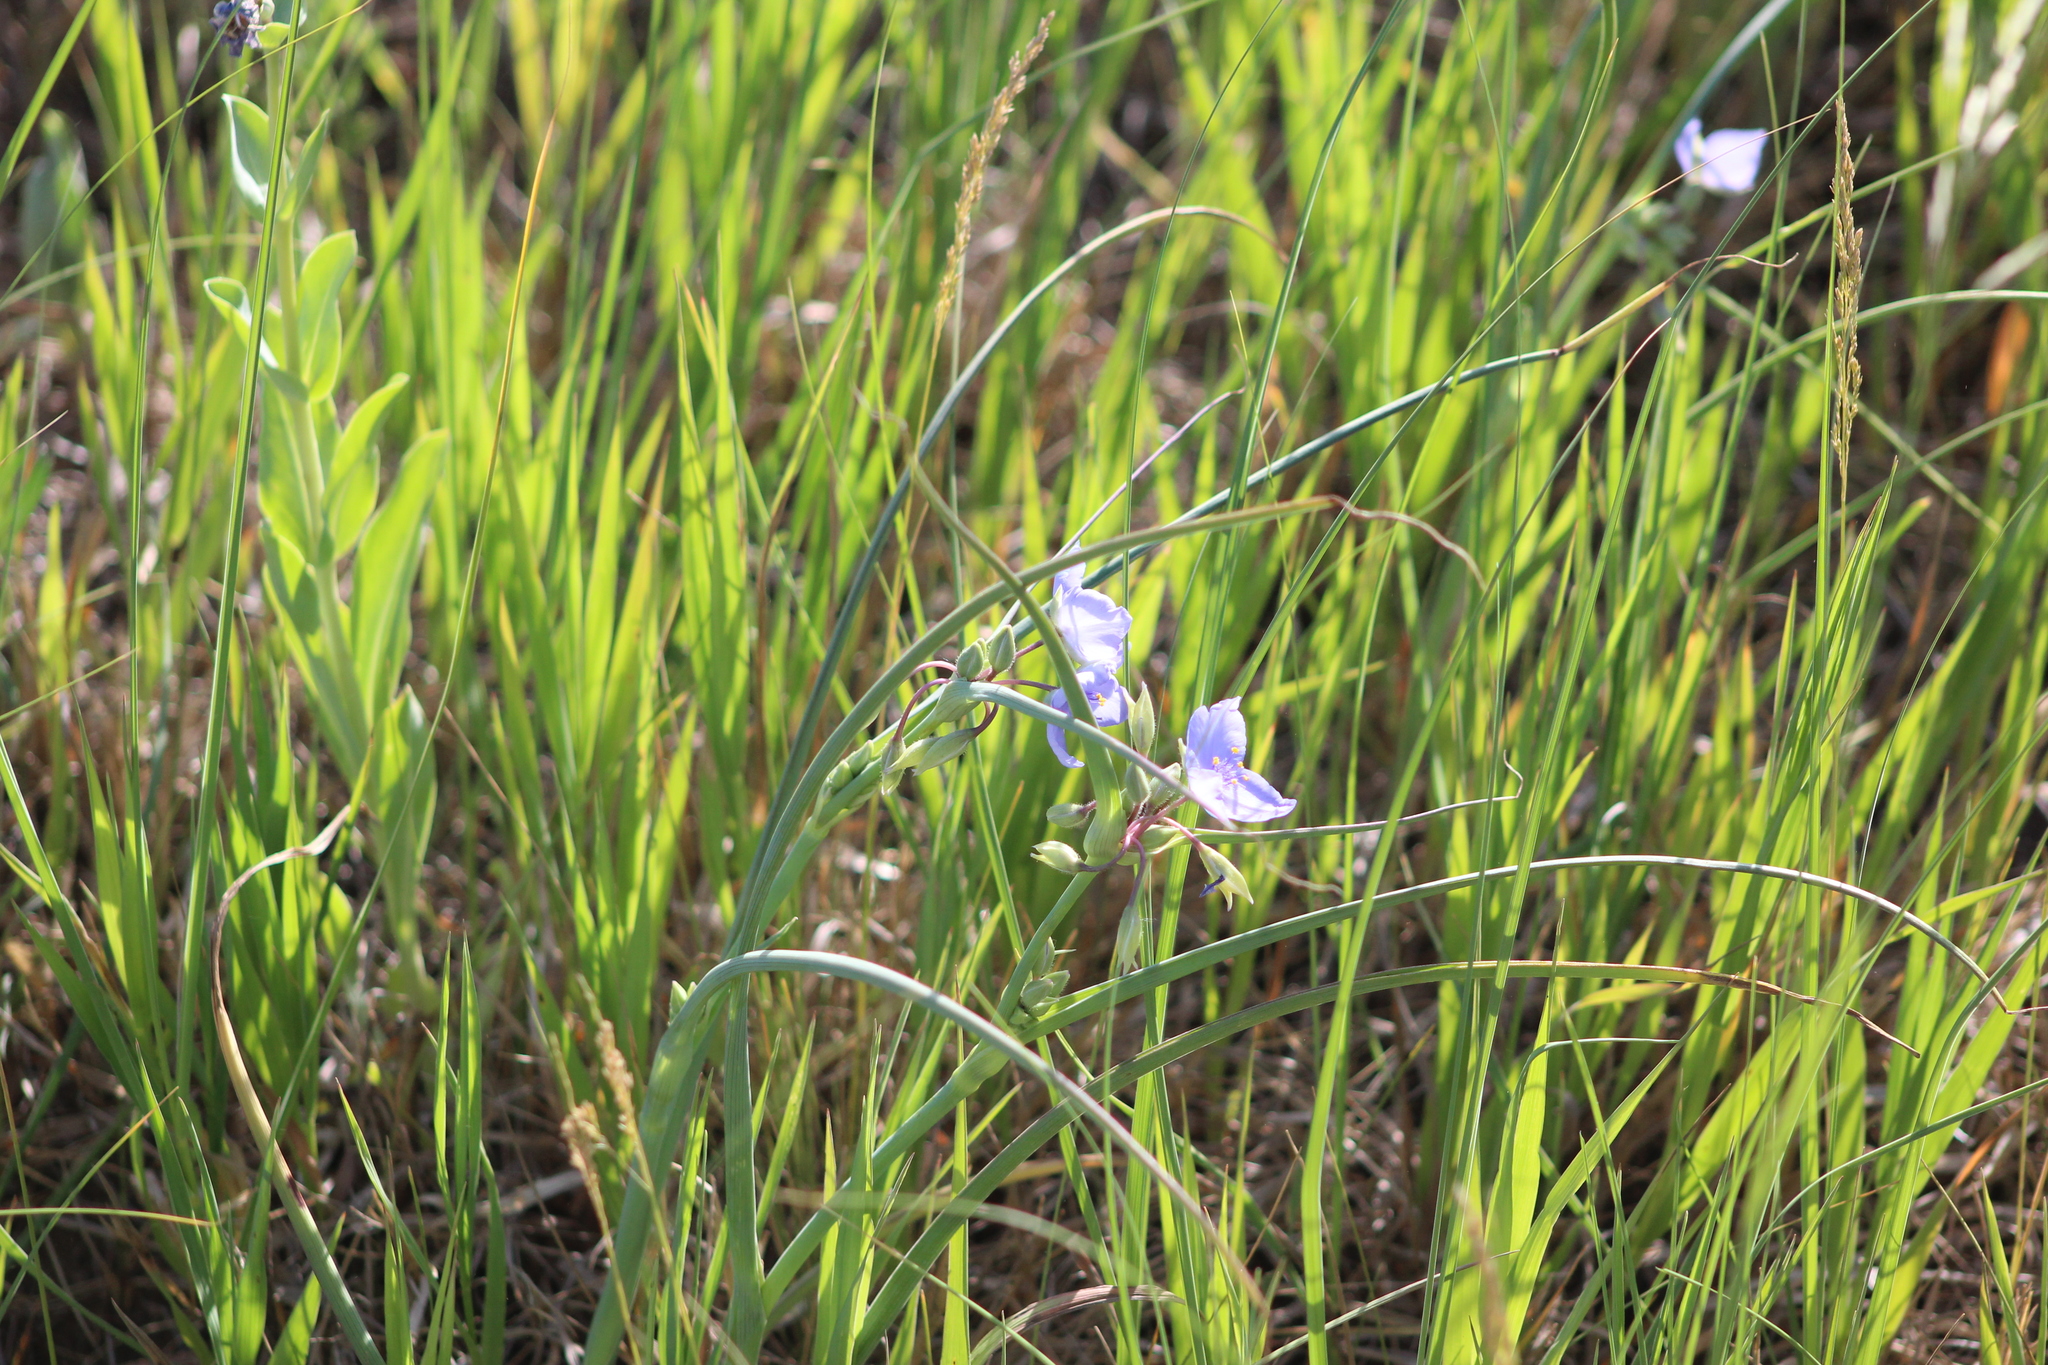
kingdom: Plantae
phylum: Tracheophyta
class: Liliopsida
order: Commelinales
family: Commelinaceae
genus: Tradescantia
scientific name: Tradescantia occidentalis
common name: Prairie spiderwort
